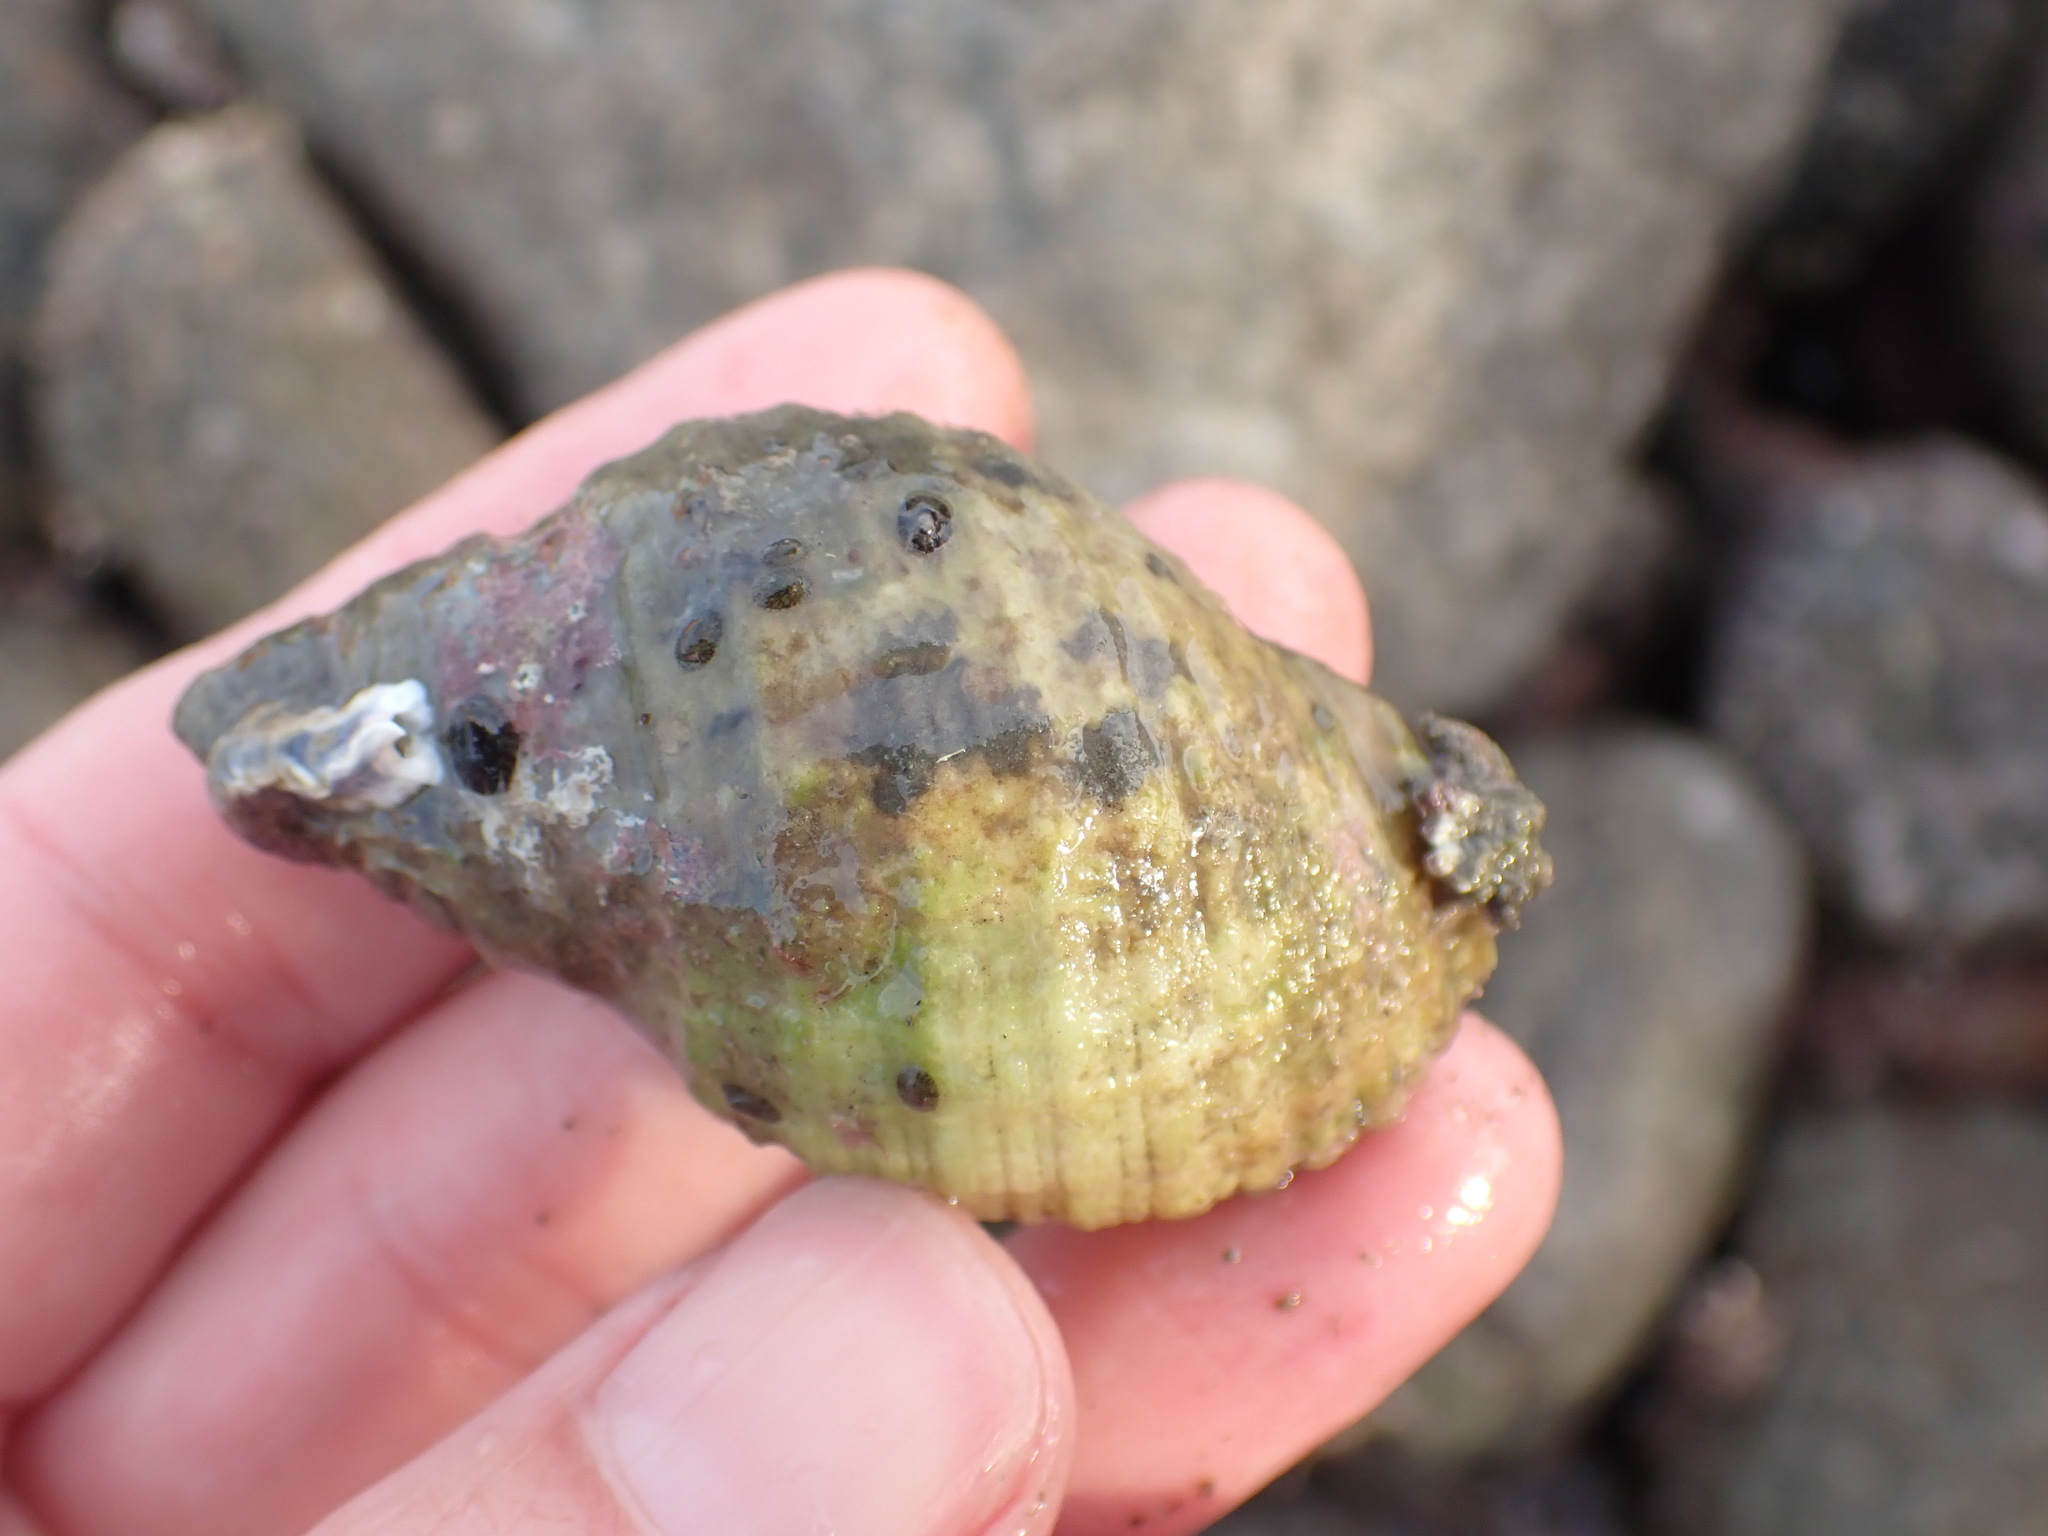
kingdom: Animalia
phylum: Mollusca
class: Gastropoda
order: Neogastropoda
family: Muricidae
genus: Dicathais
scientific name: Dicathais orbita
